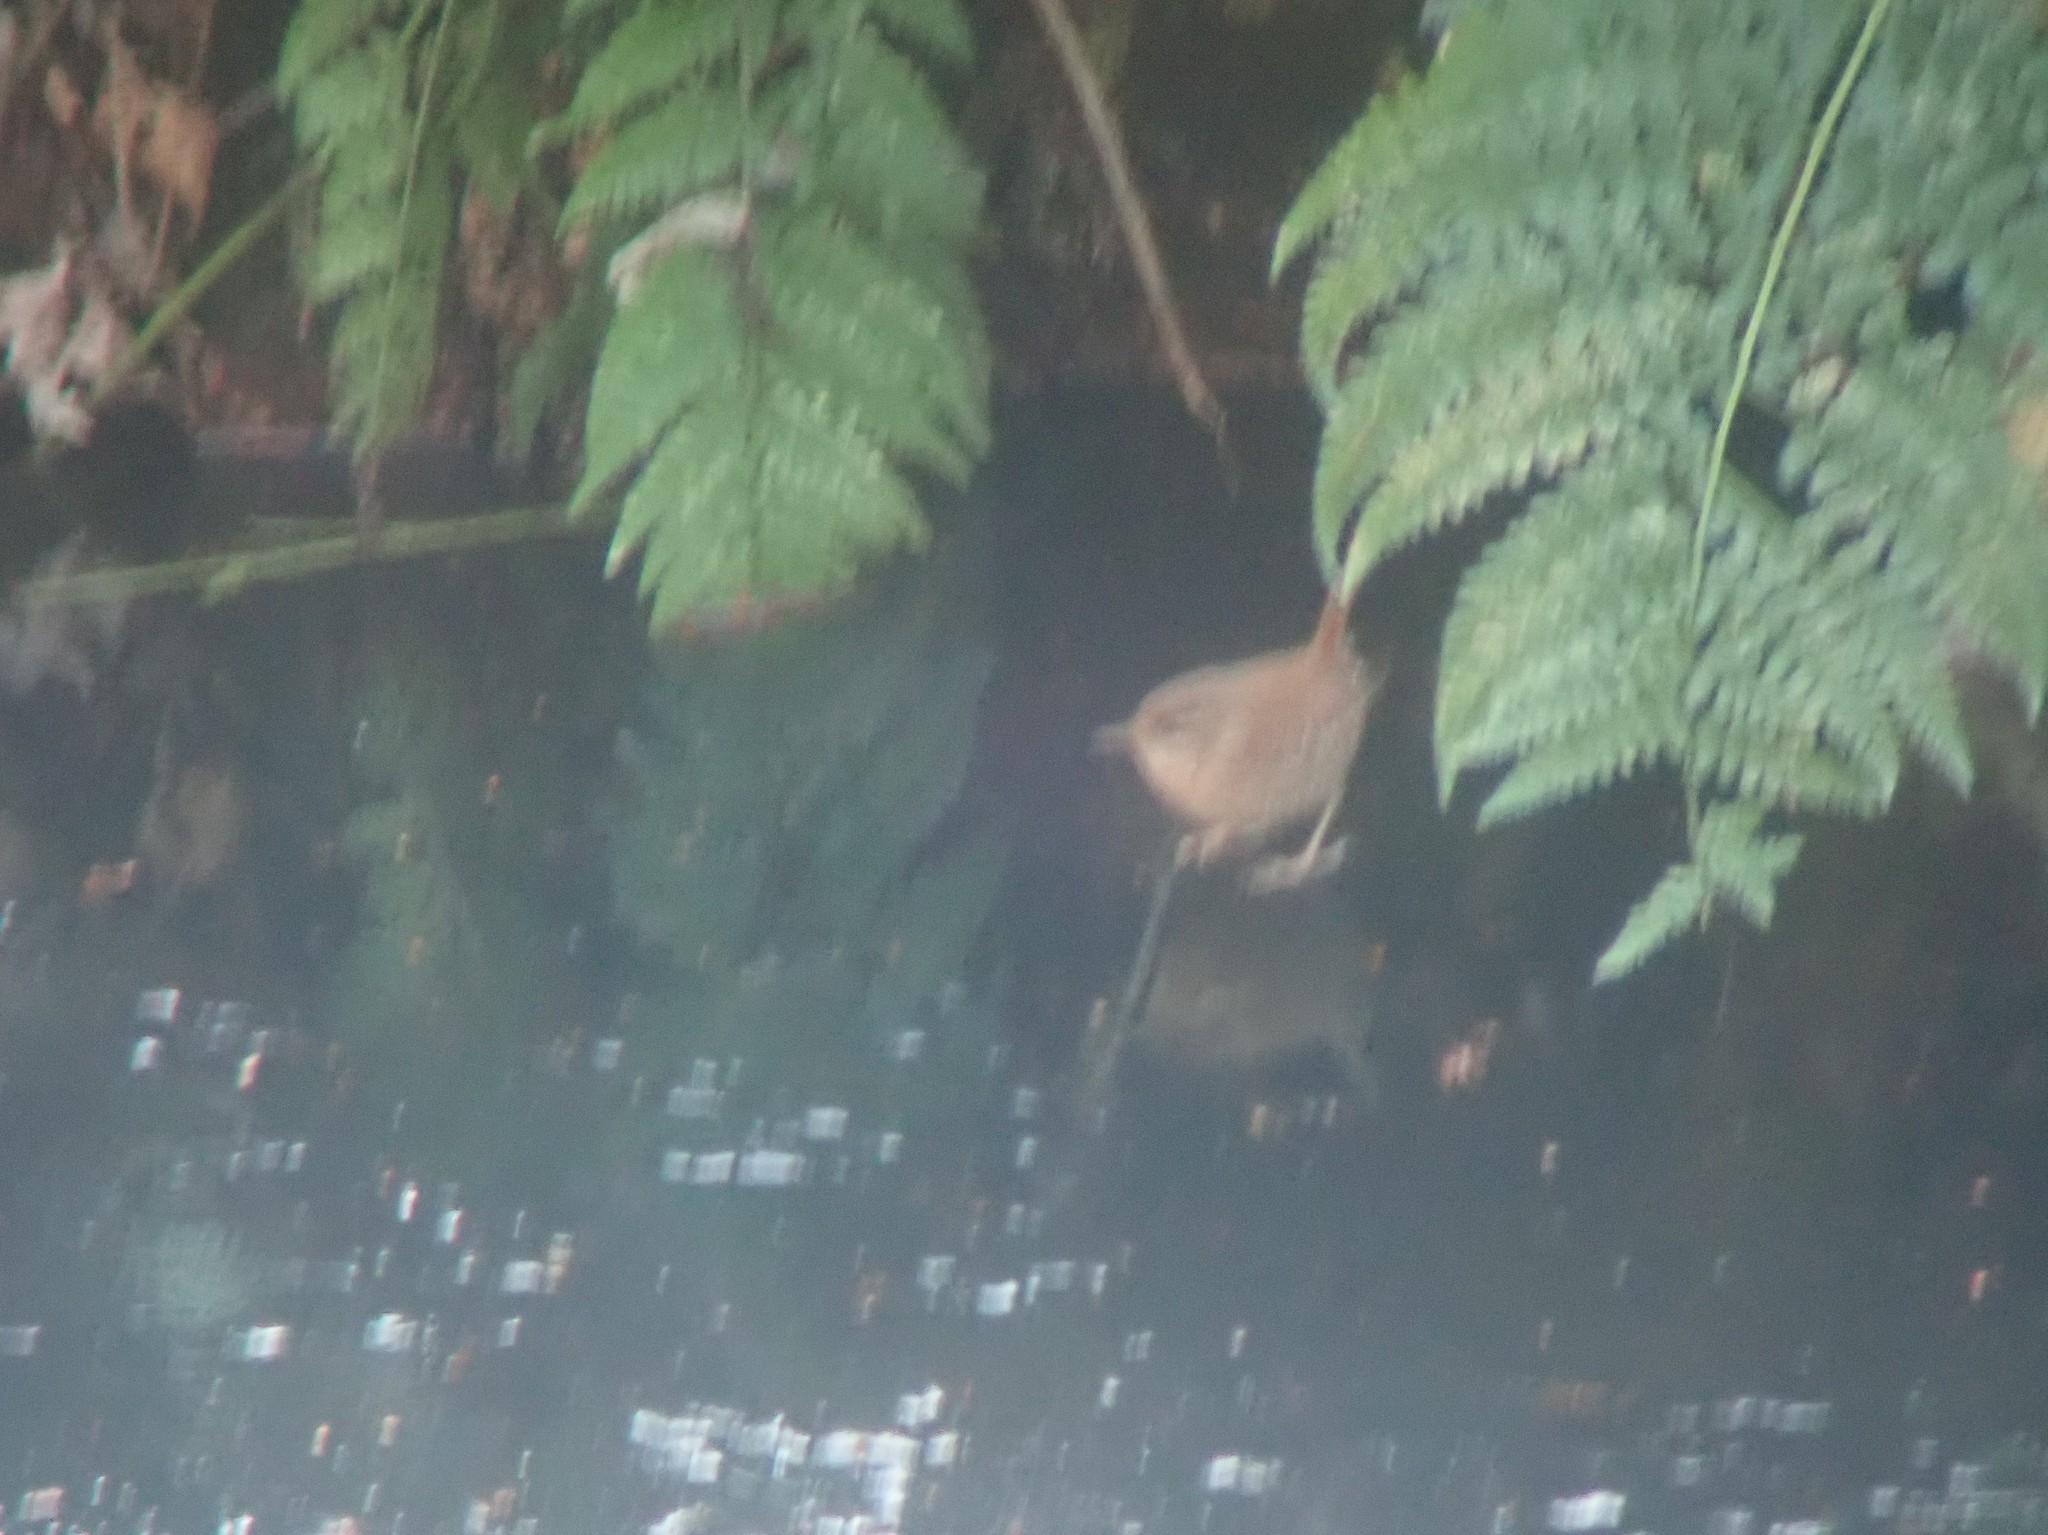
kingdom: Animalia
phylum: Chordata
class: Aves
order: Passeriformes
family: Troglodytidae
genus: Troglodytes
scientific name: Troglodytes troglodytes
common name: Eurasian wren
